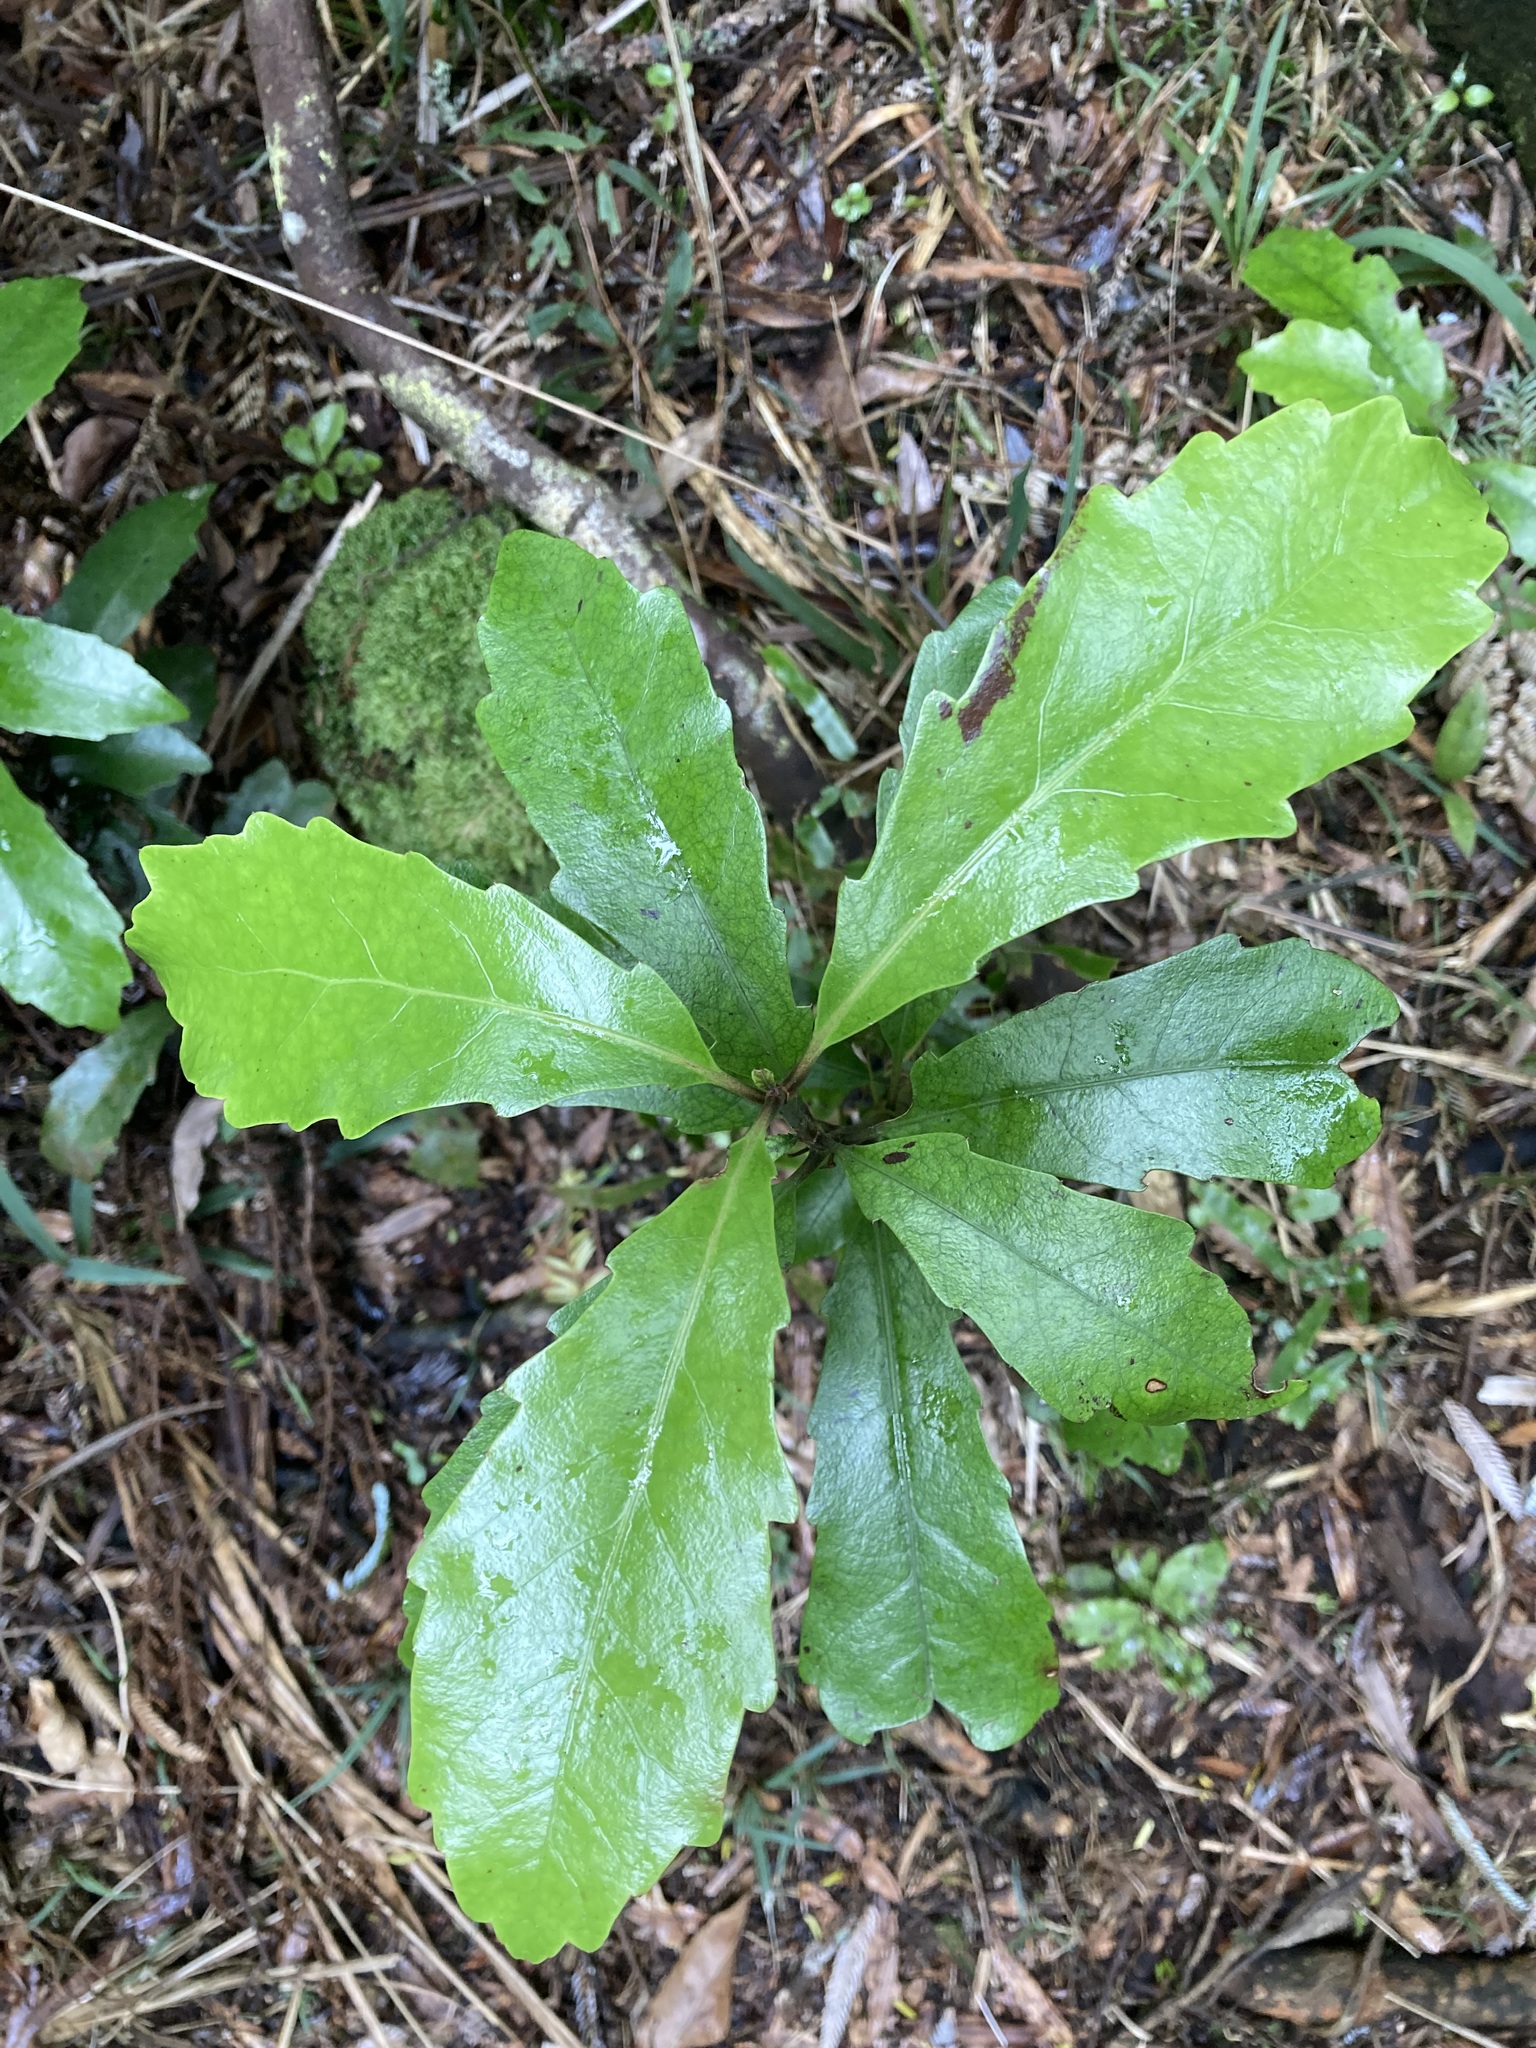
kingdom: Plantae
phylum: Tracheophyta
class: Magnoliopsida
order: Asterales
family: Alseuosmiaceae
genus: Alseuosmia
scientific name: Alseuosmia quercifolia
